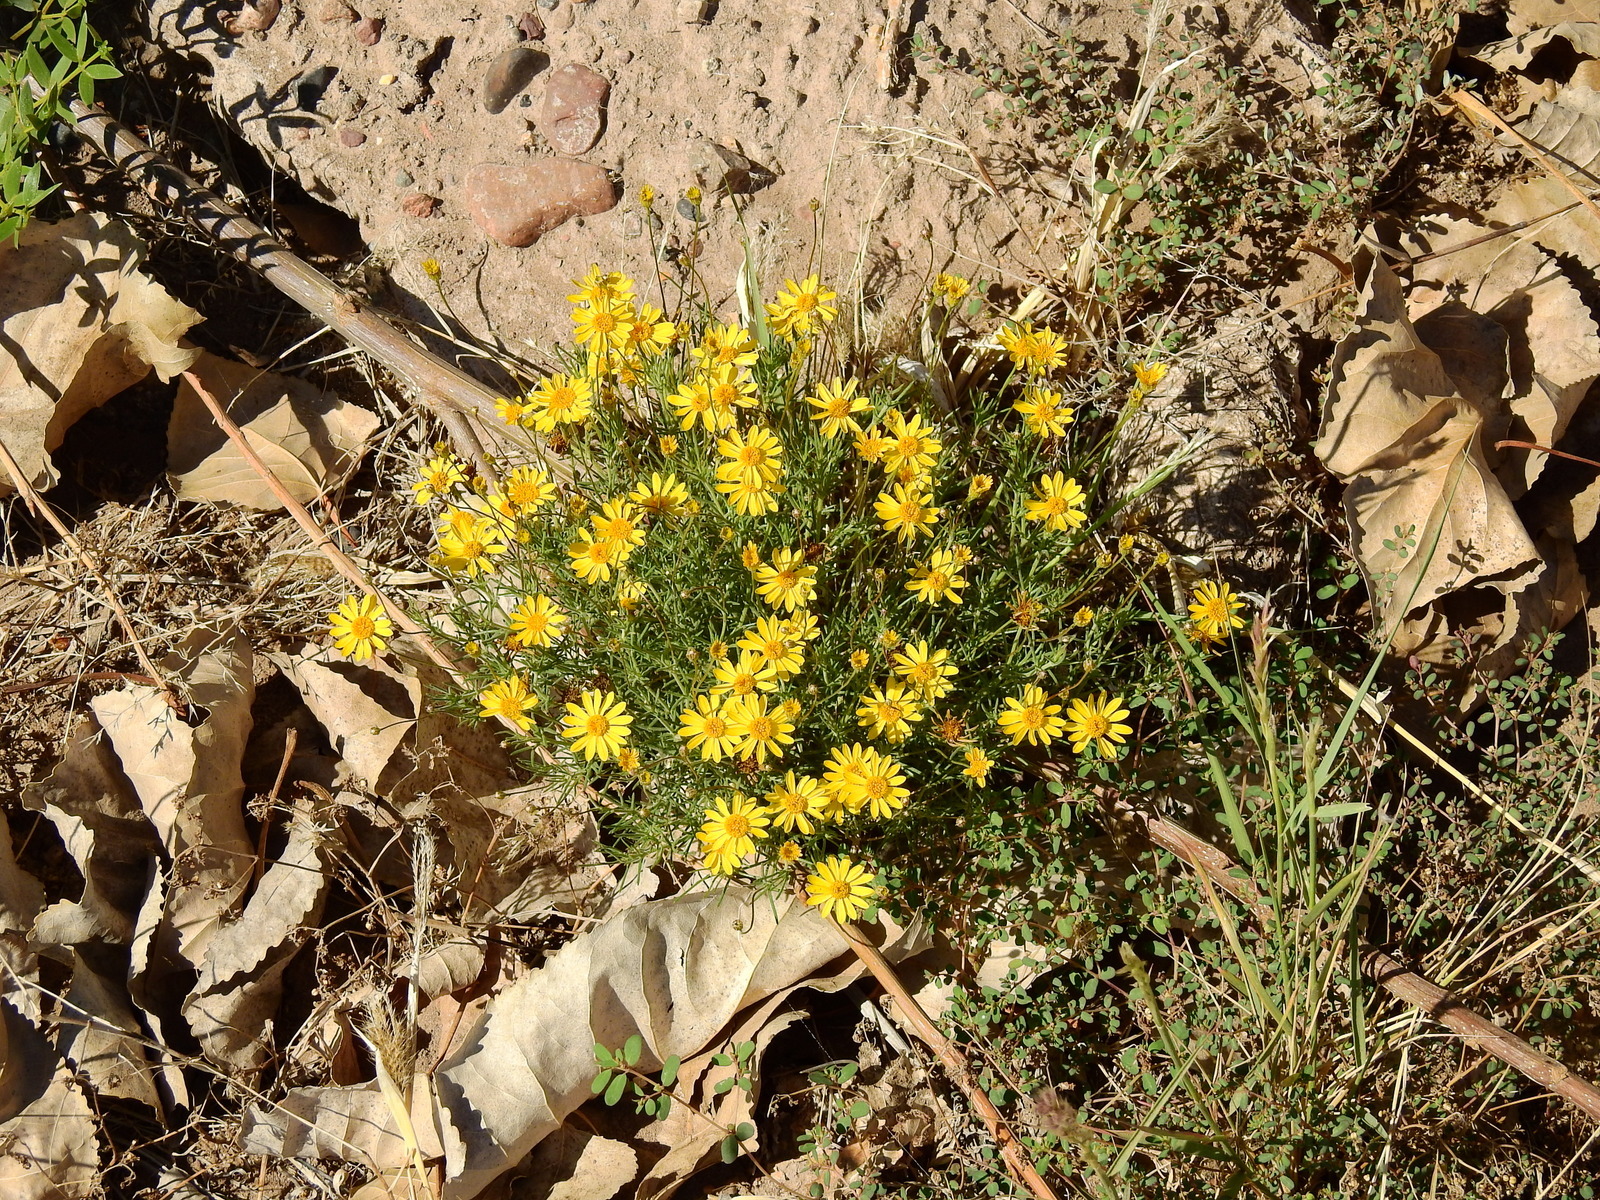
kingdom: Plantae
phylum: Tracheophyta
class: Magnoliopsida
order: Asterales
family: Asteraceae
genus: Thymophylla
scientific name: Thymophylla pentachaeta
